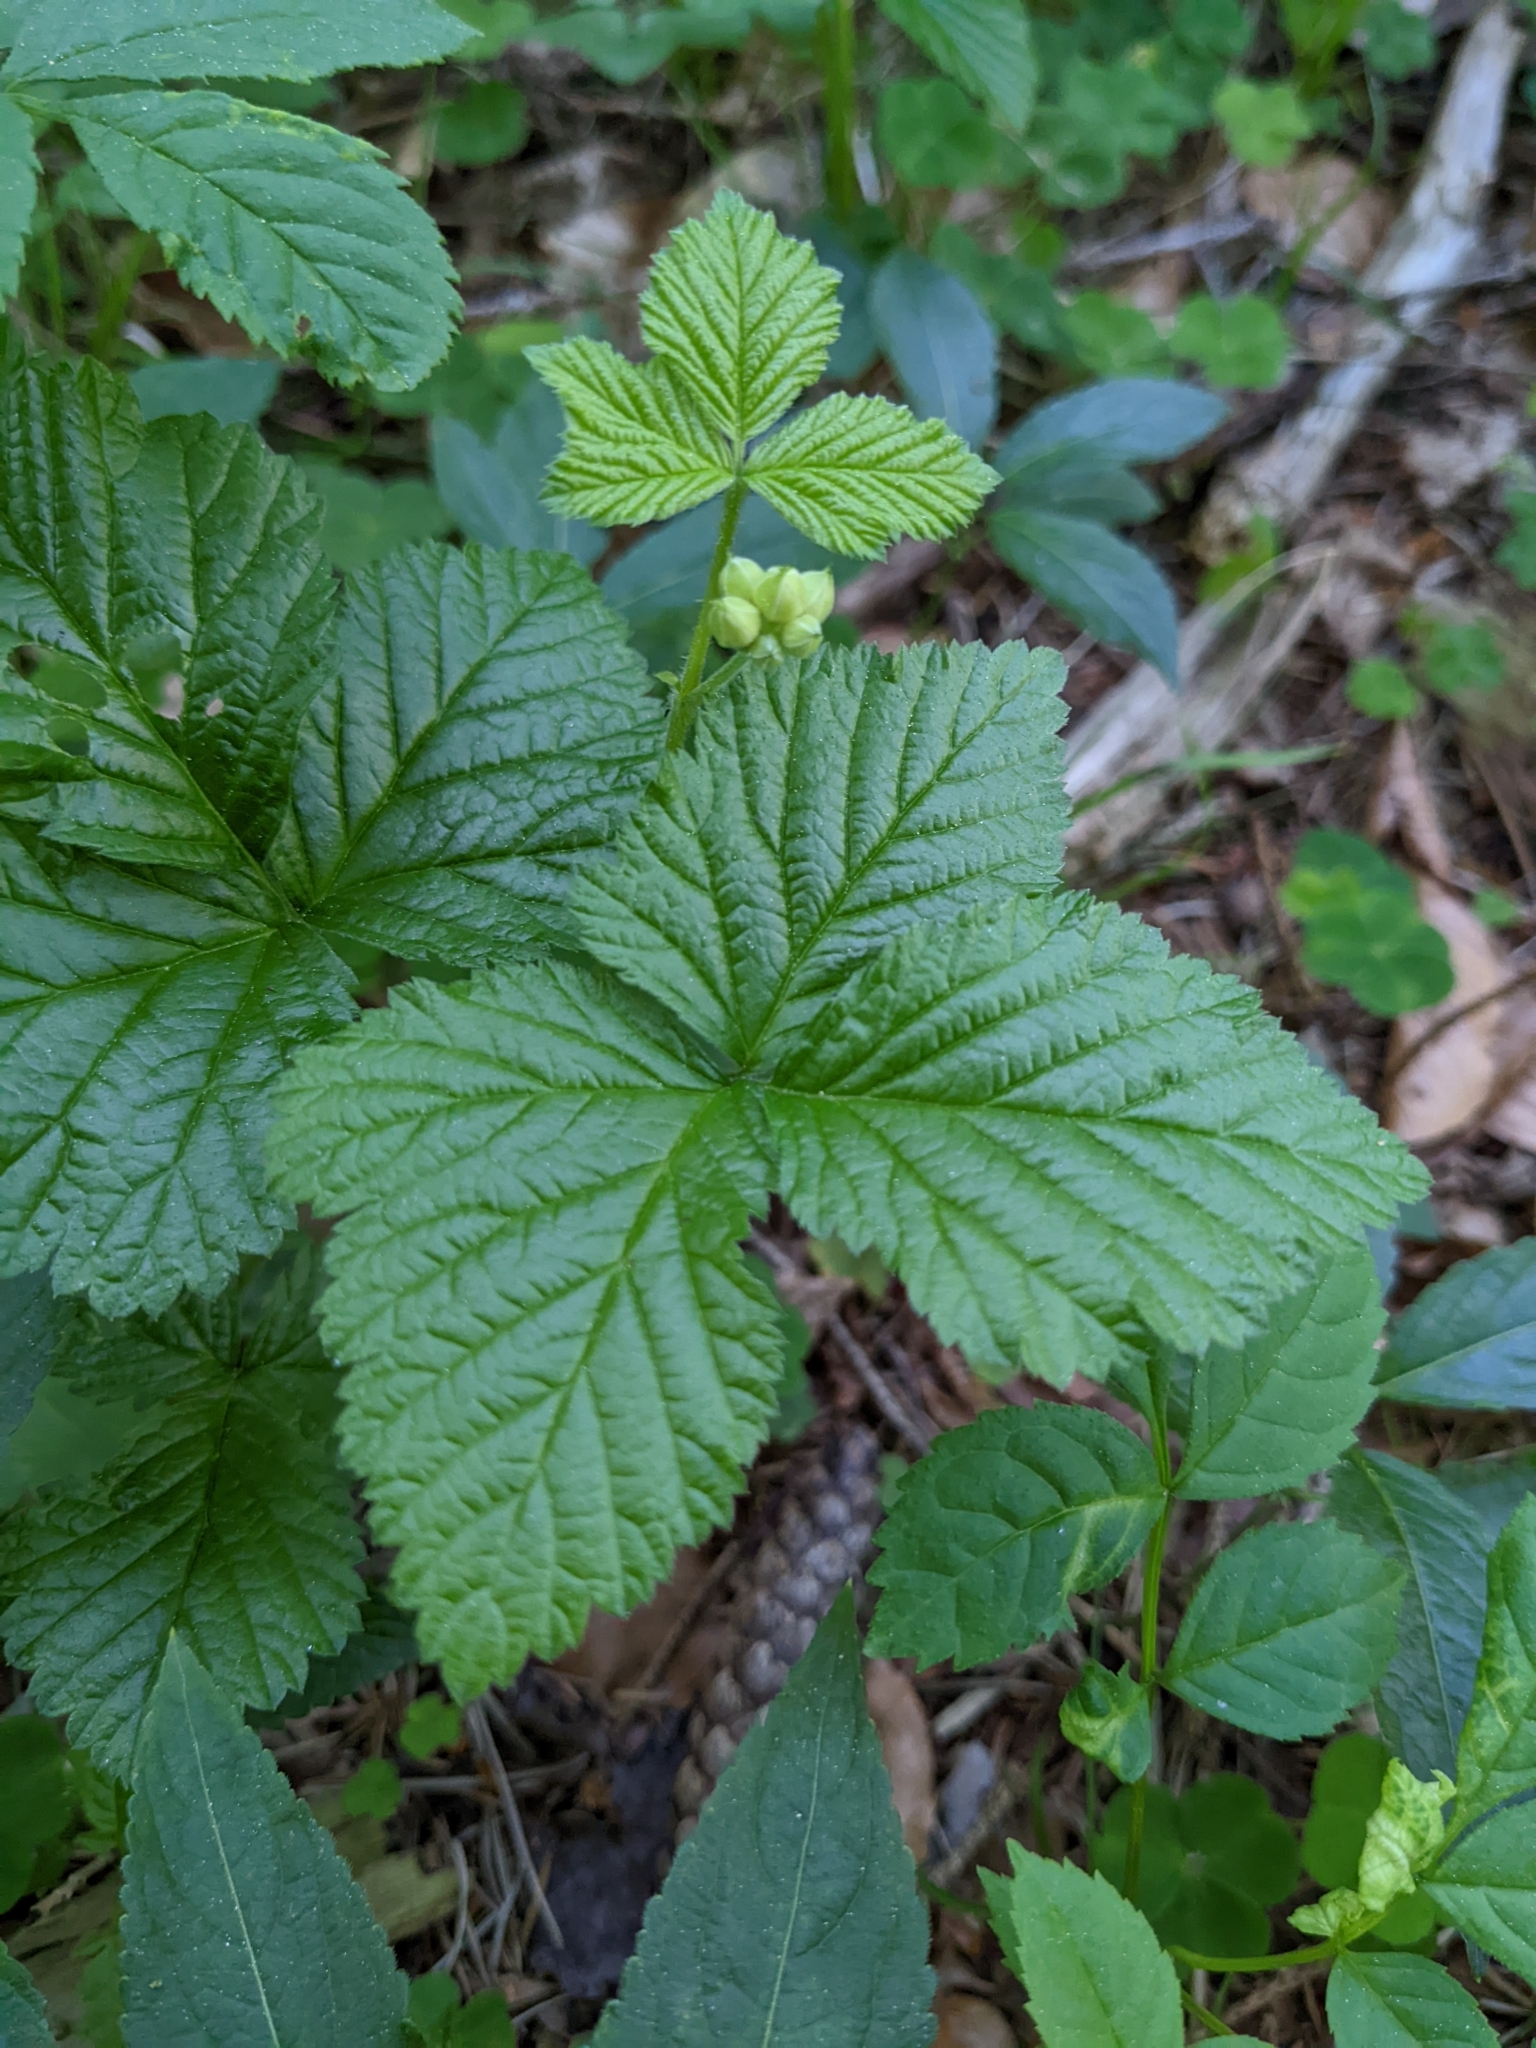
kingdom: Plantae
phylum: Tracheophyta
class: Magnoliopsida
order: Rosales
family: Rosaceae
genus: Rubus
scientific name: Rubus saxatilis
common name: Stone bramble
